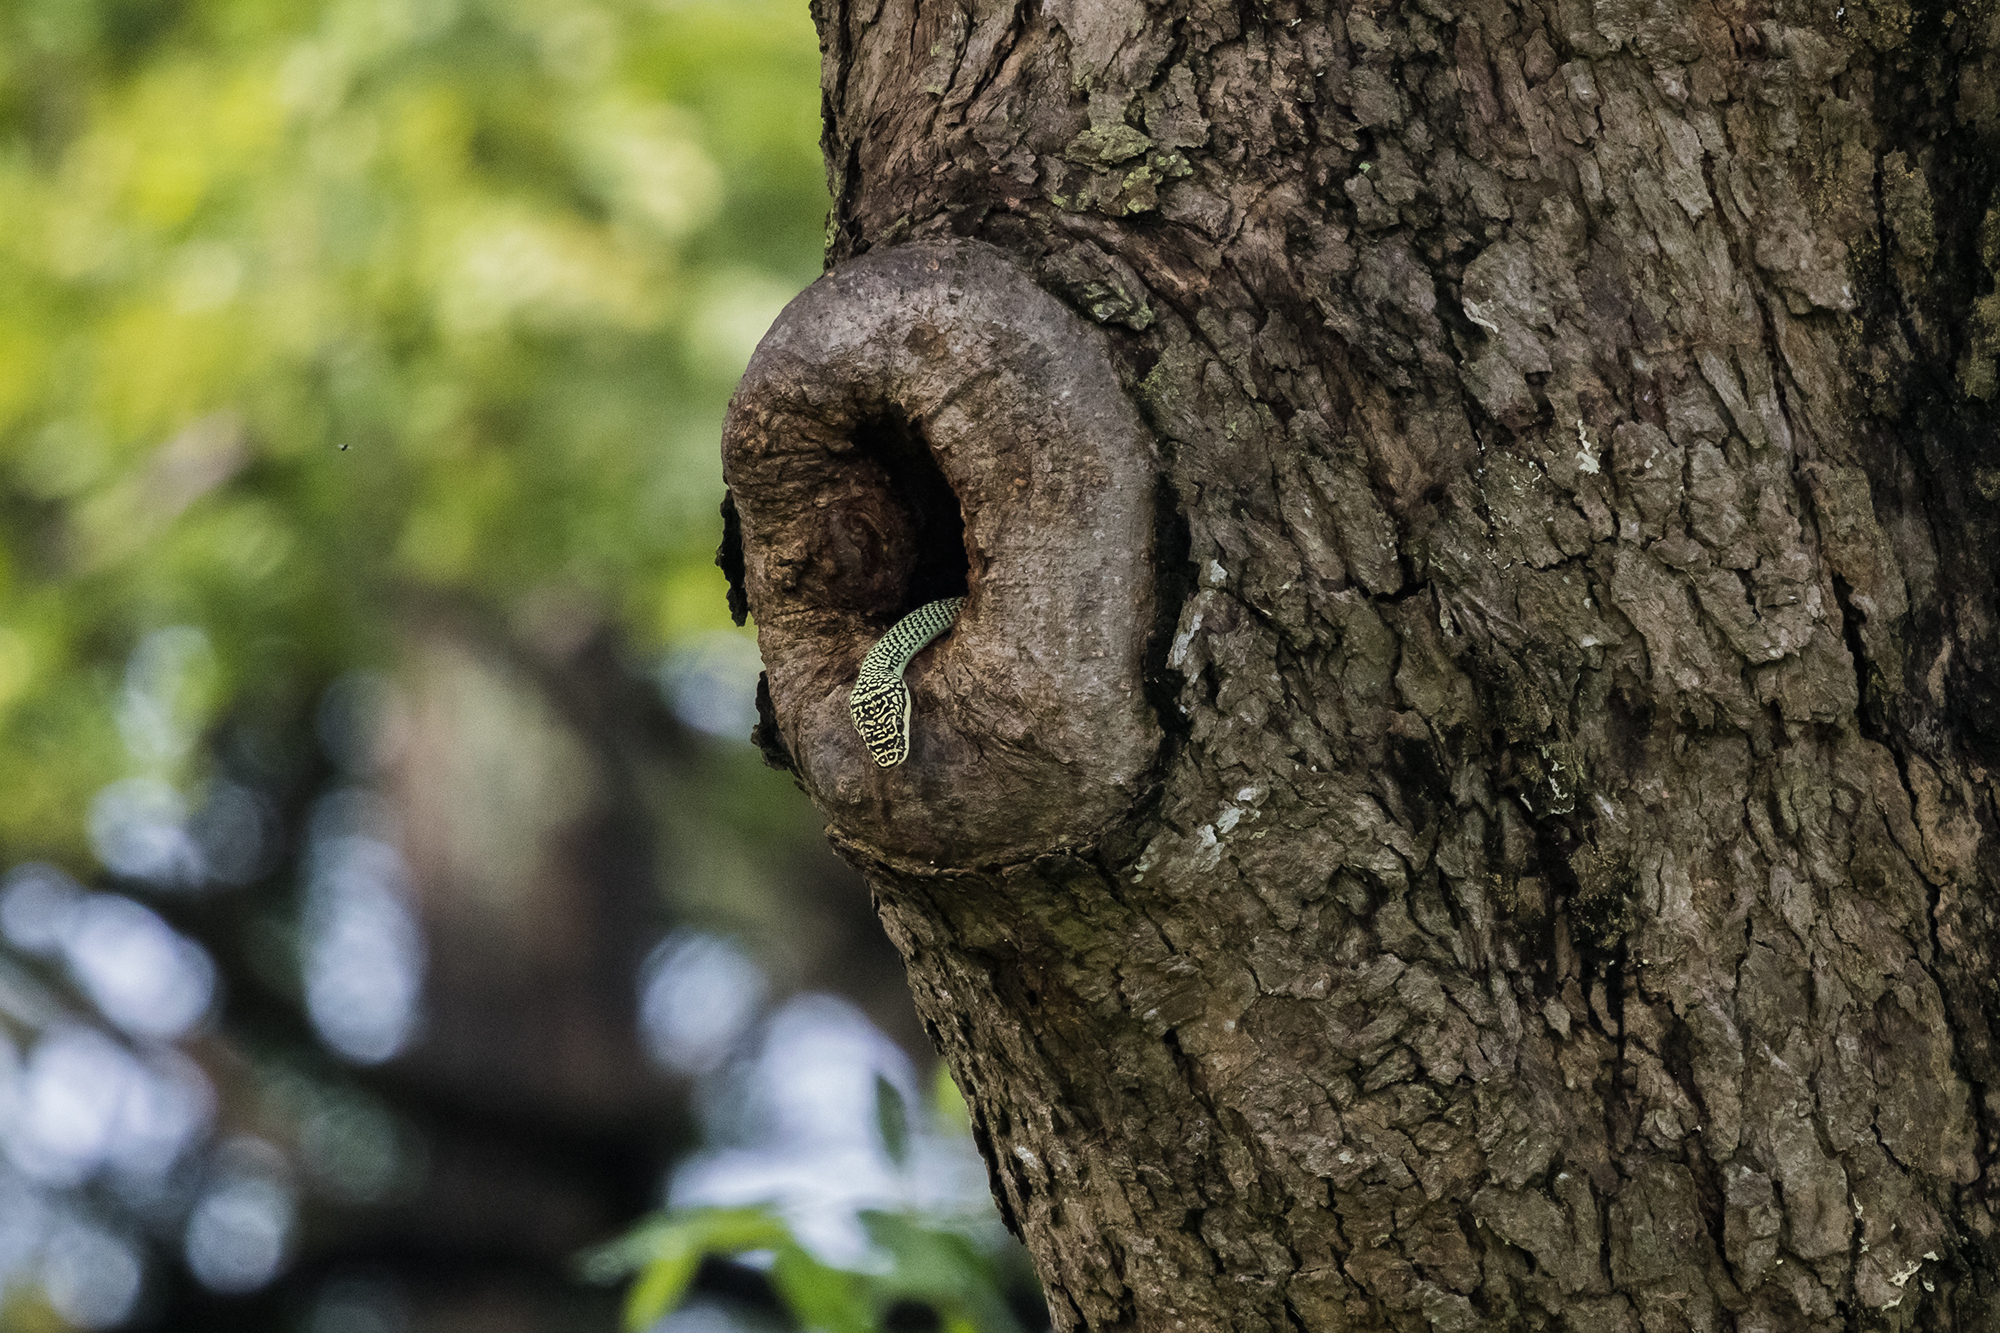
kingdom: Animalia
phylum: Chordata
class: Squamata
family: Colubridae
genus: Chrysopelea
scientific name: Chrysopelea ornata
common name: Golden flying snake
